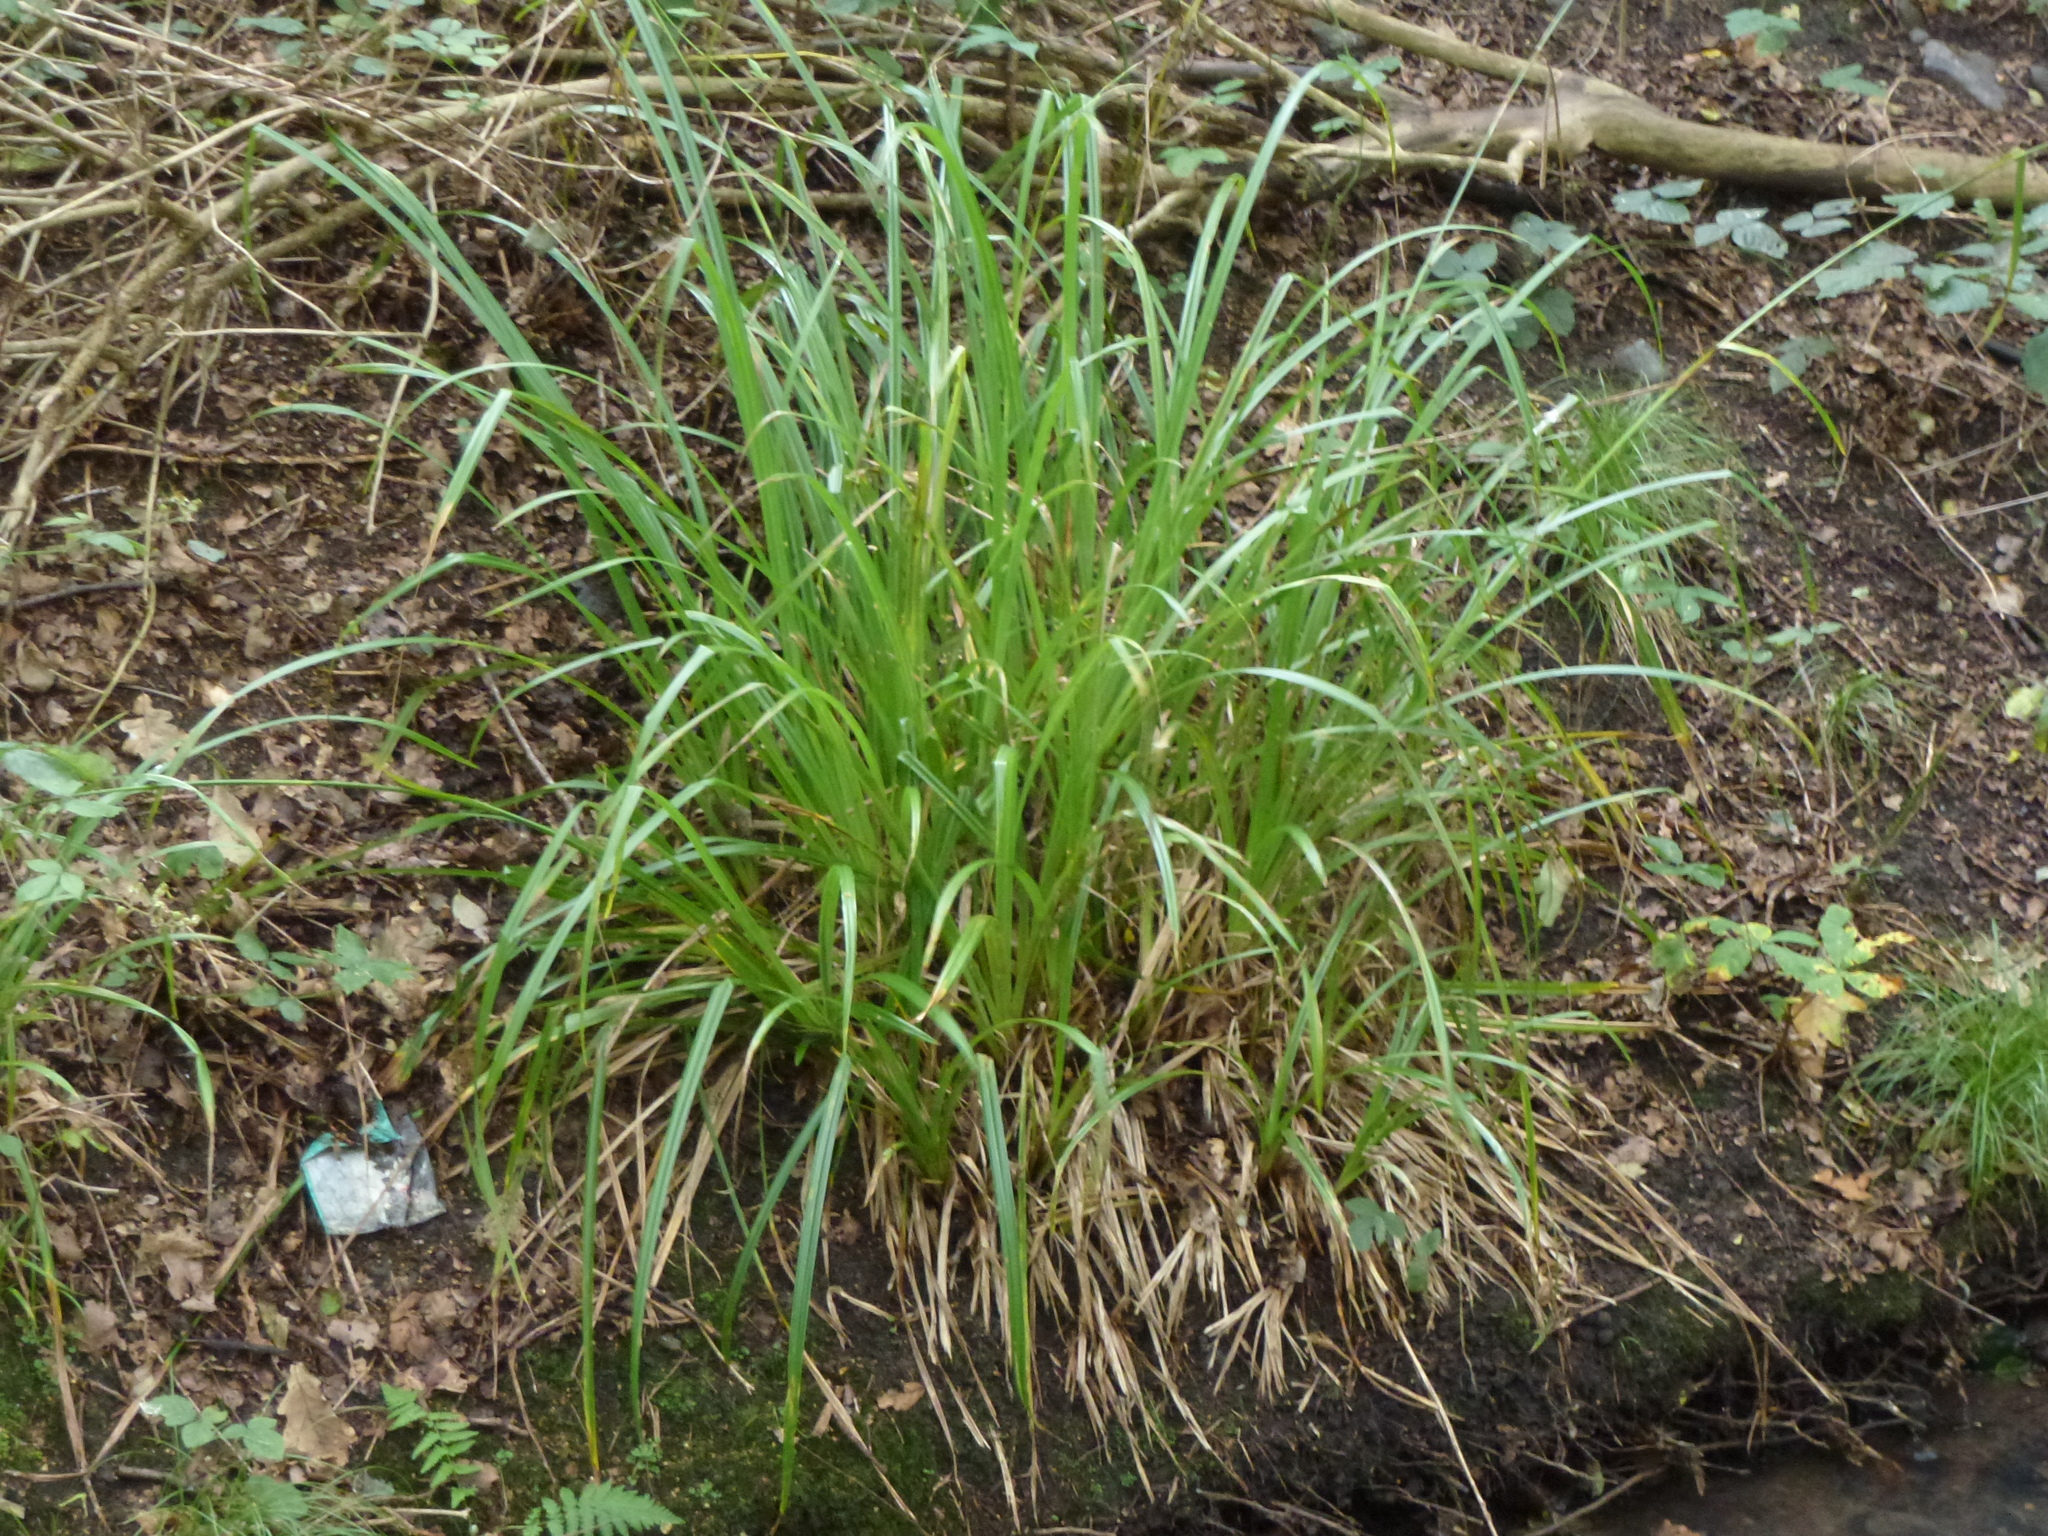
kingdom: Plantae
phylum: Tracheophyta
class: Liliopsida
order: Poales
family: Cyperaceae
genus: Carex
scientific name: Carex pendula
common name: Pendulous sedge
